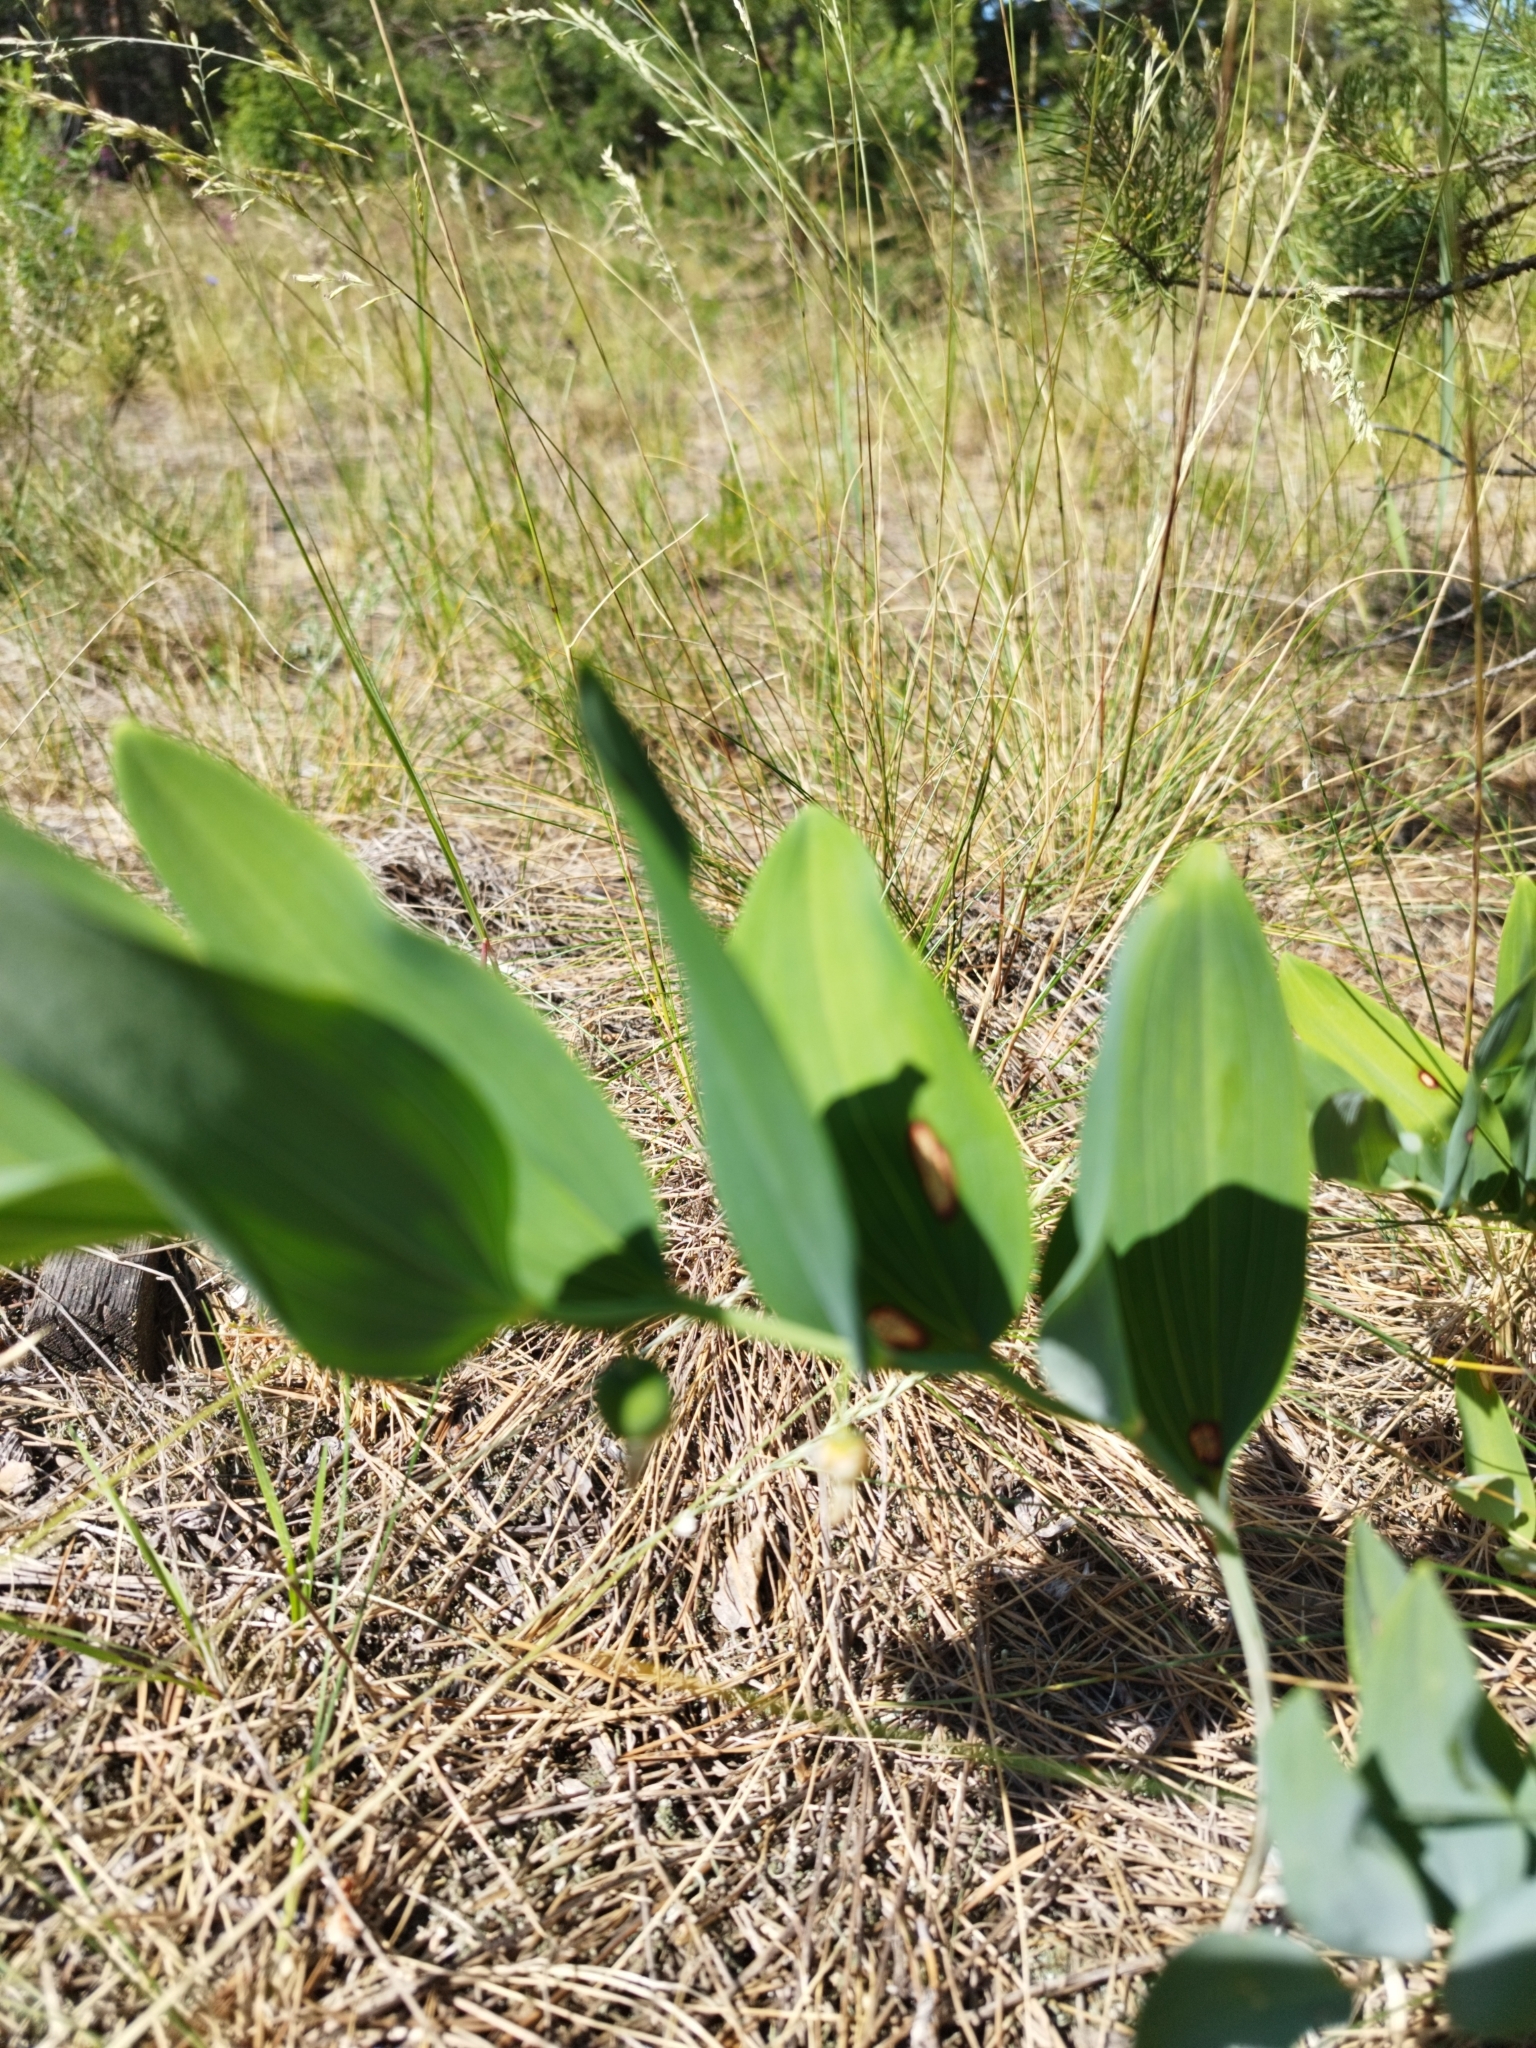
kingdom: Plantae
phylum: Tracheophyta
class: Liliopsida
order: Asparagales
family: Asparagaceae
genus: Polygonatum
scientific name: Polygonatum odoratum
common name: Angular solomon's-seal
